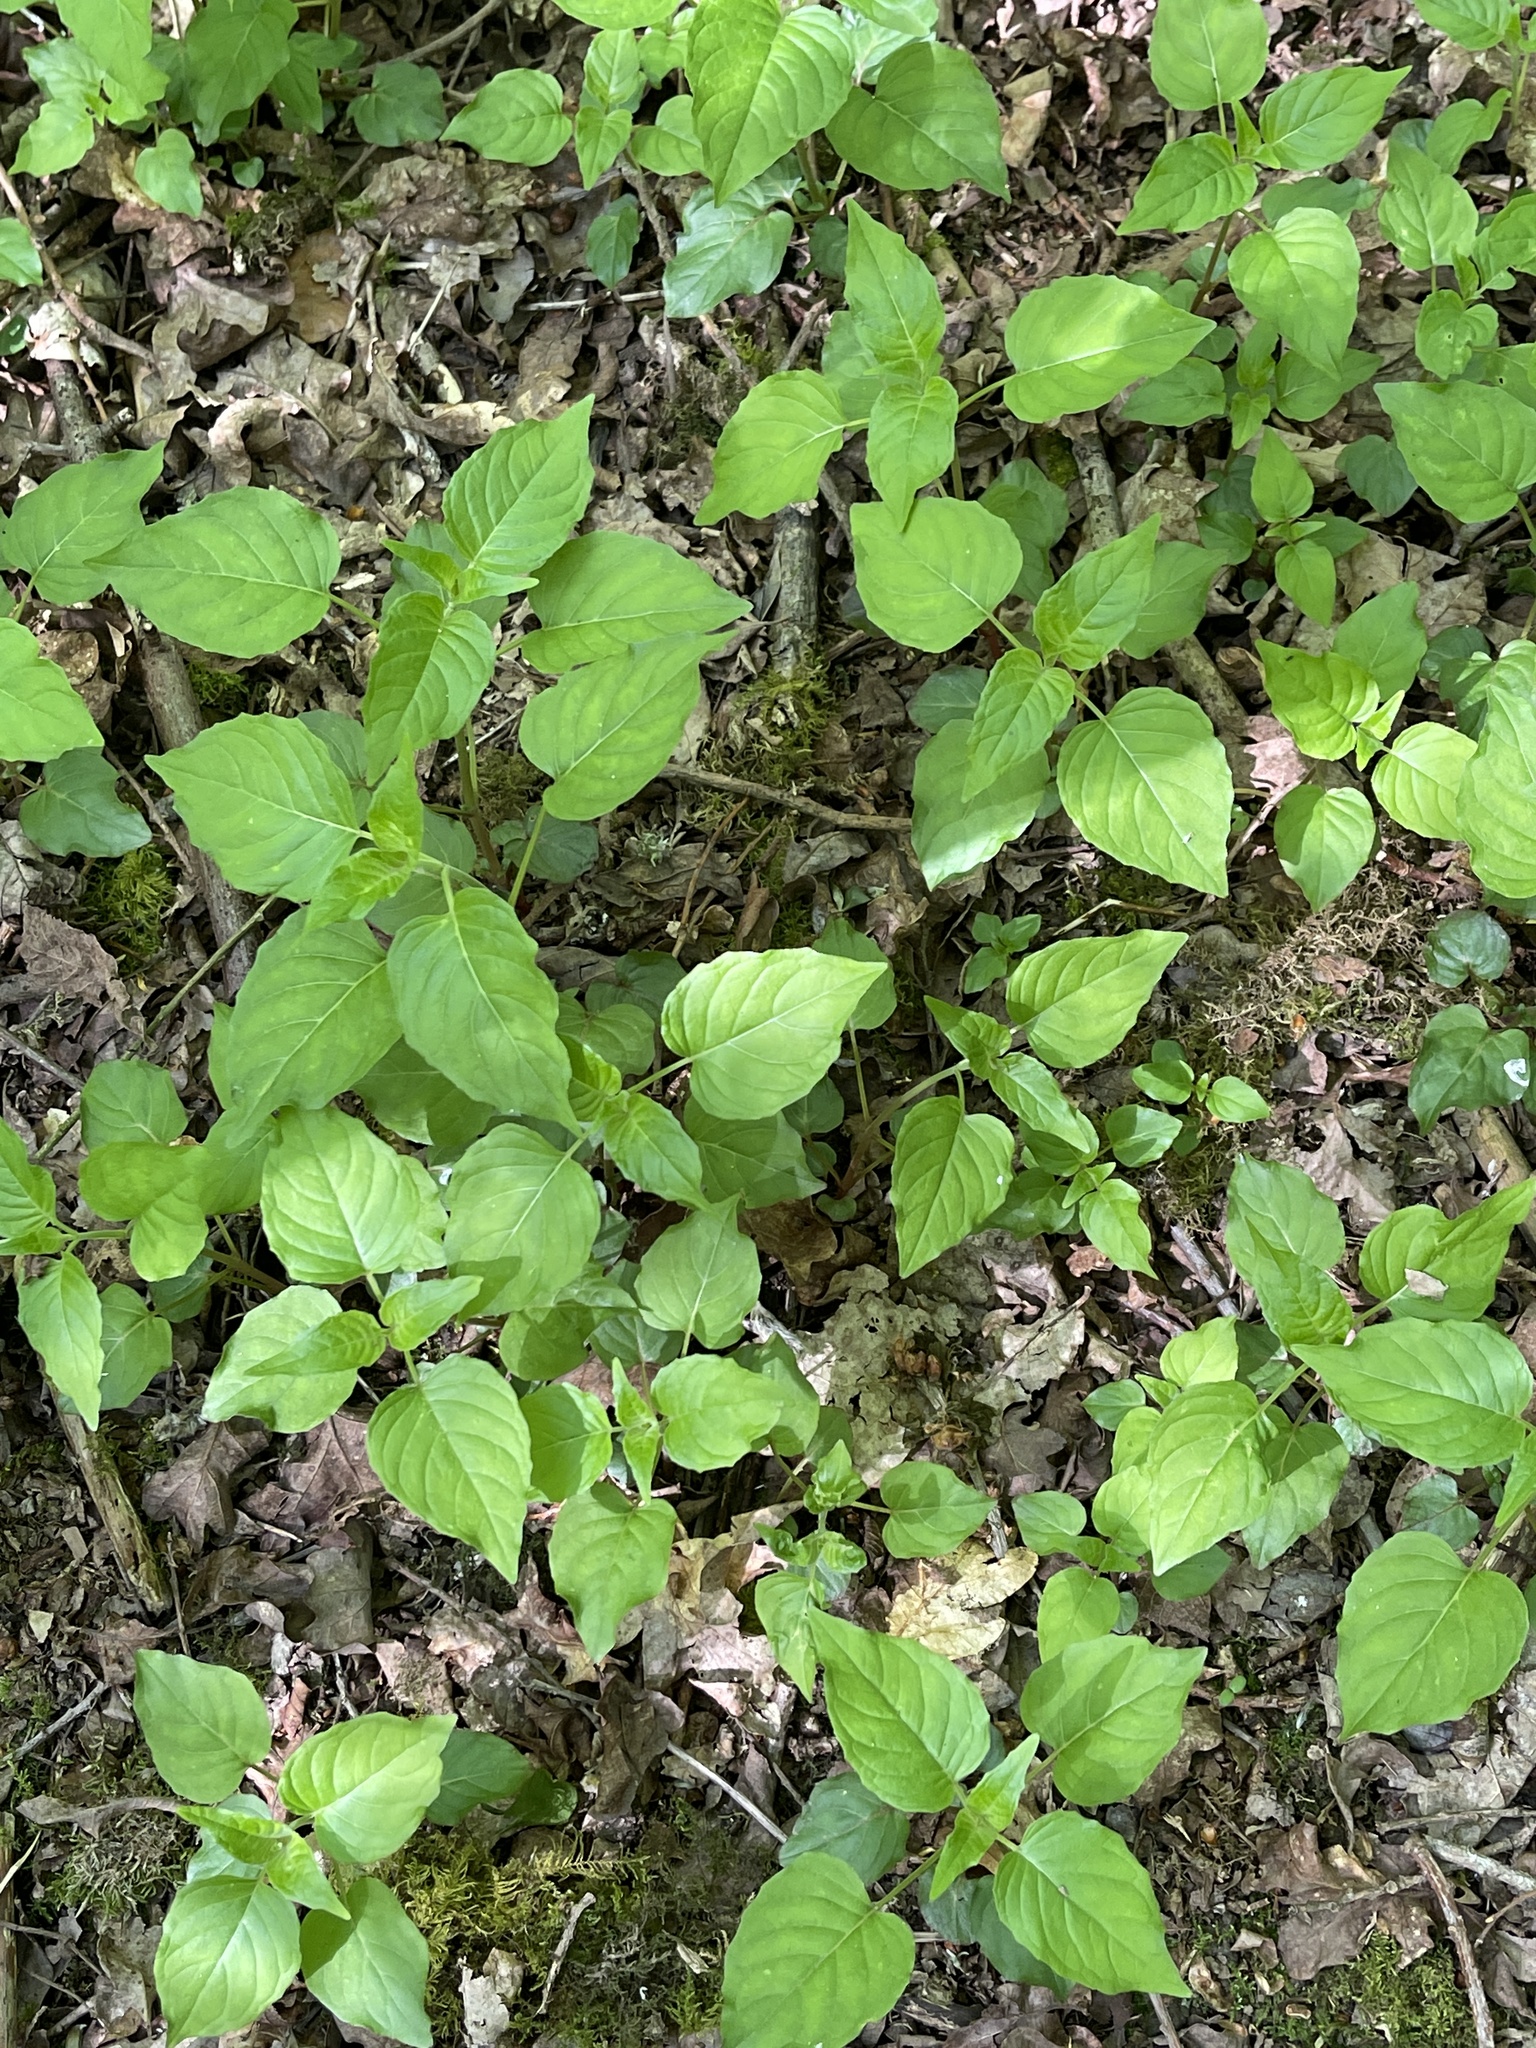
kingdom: Plantae
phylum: Tracheophyta
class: Magnoliopsida
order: Myrtales
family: Onagraceae
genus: Circaea
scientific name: Circaea lutetiana
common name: Enchanter's-nightshade
